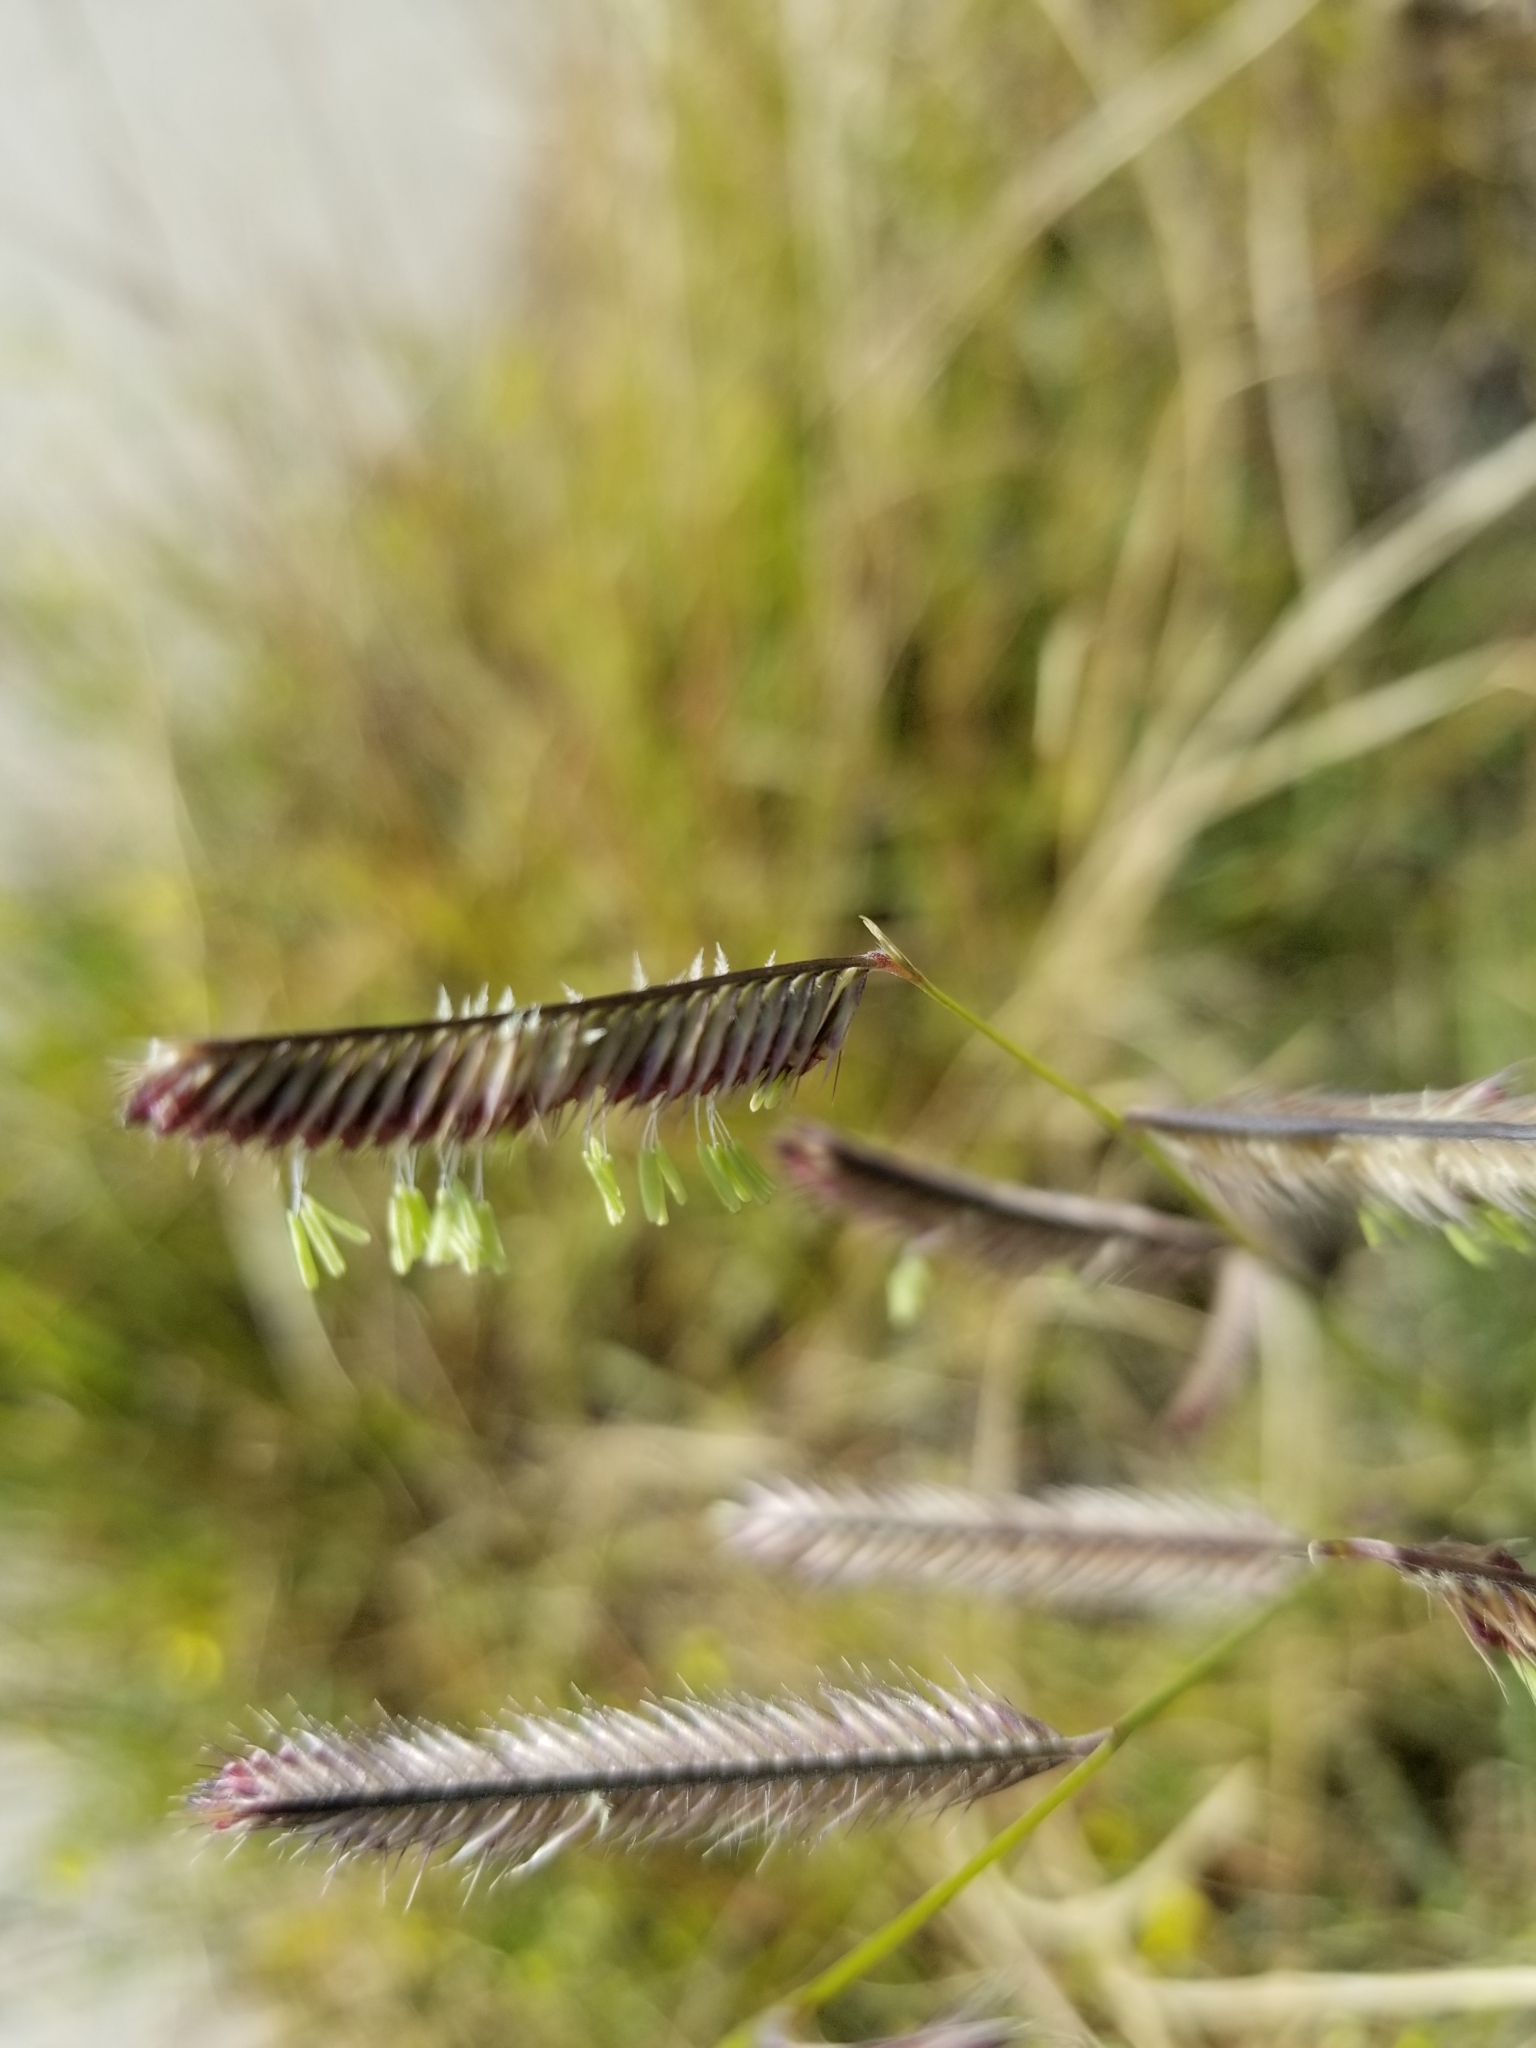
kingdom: Plantae
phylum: Tracheophyta
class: Liliopsida
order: Poales
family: Poaceae
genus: Bouteloua
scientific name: Bouteloua gracilis
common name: Blue grama
